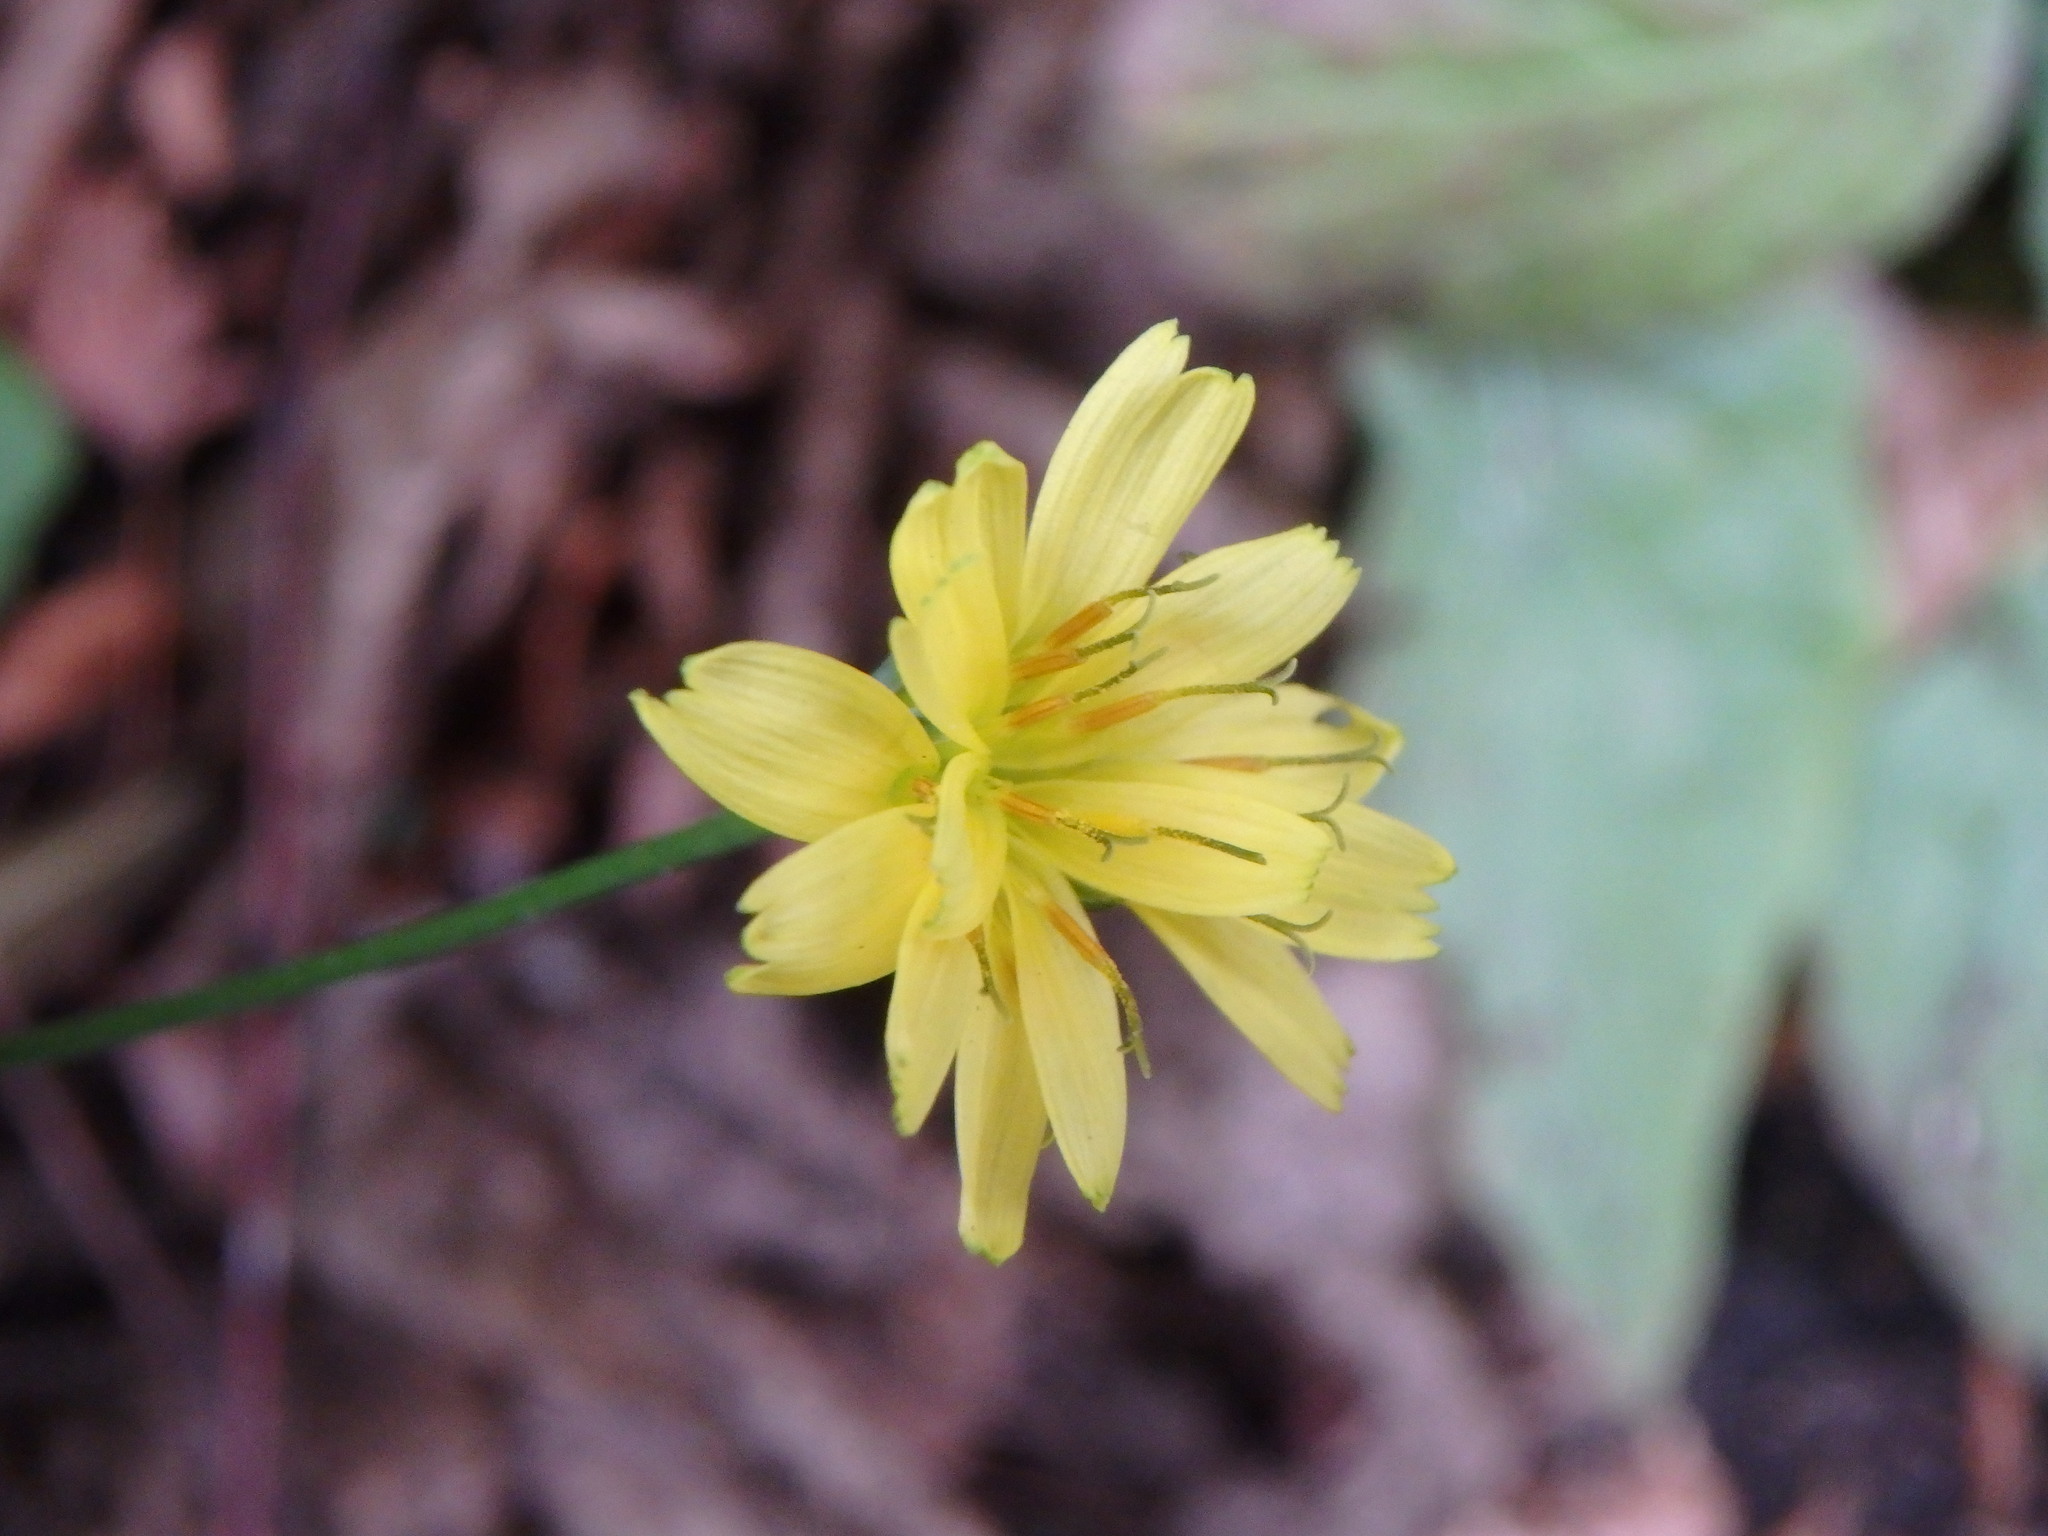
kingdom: Plantae
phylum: Tracheophyta
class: Magnoliopsida
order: Asterales
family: Asteraceae
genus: Lapsana
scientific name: Lapsana communis
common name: Nipplewort
